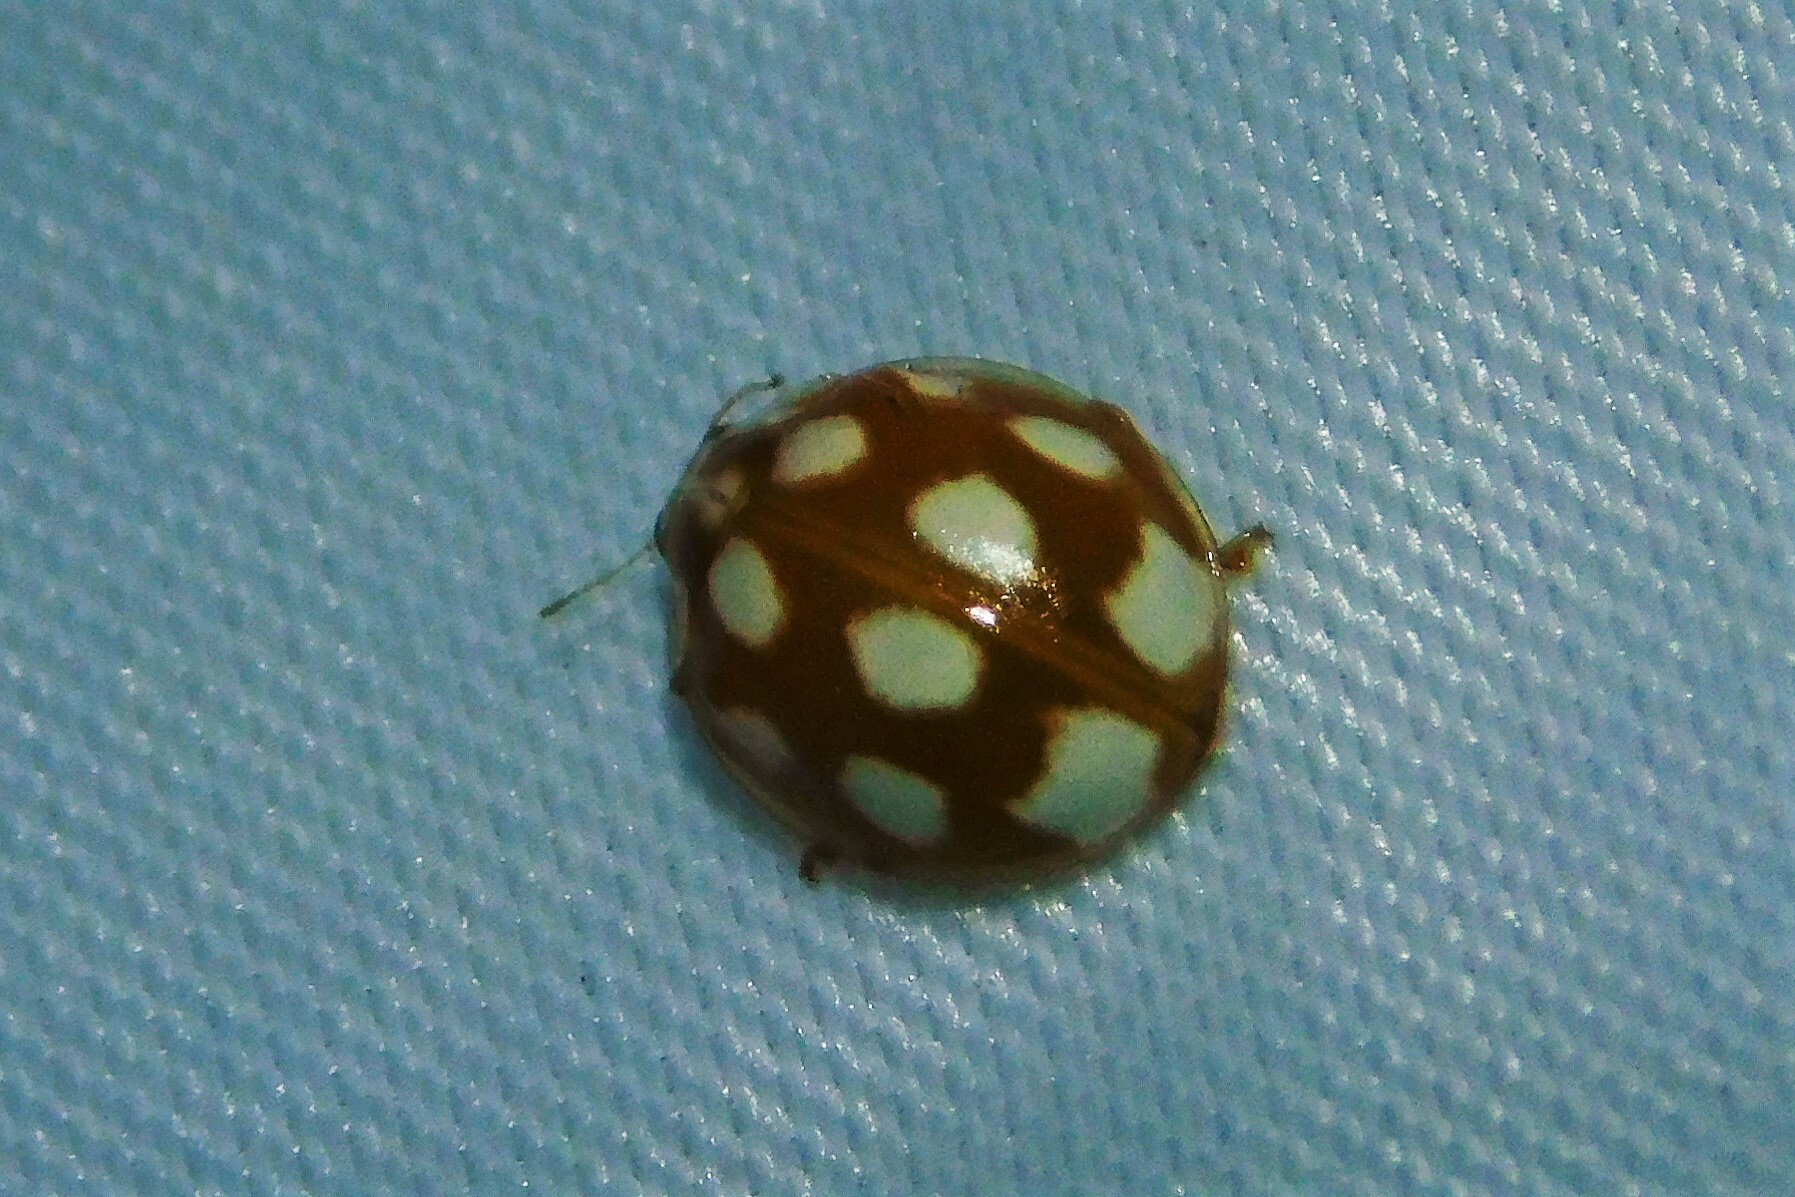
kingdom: Animalia
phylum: Arthropoda
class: Insecta
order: Coleoptera
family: Coccinellidae
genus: Calvia
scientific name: Calvia decemguttata
